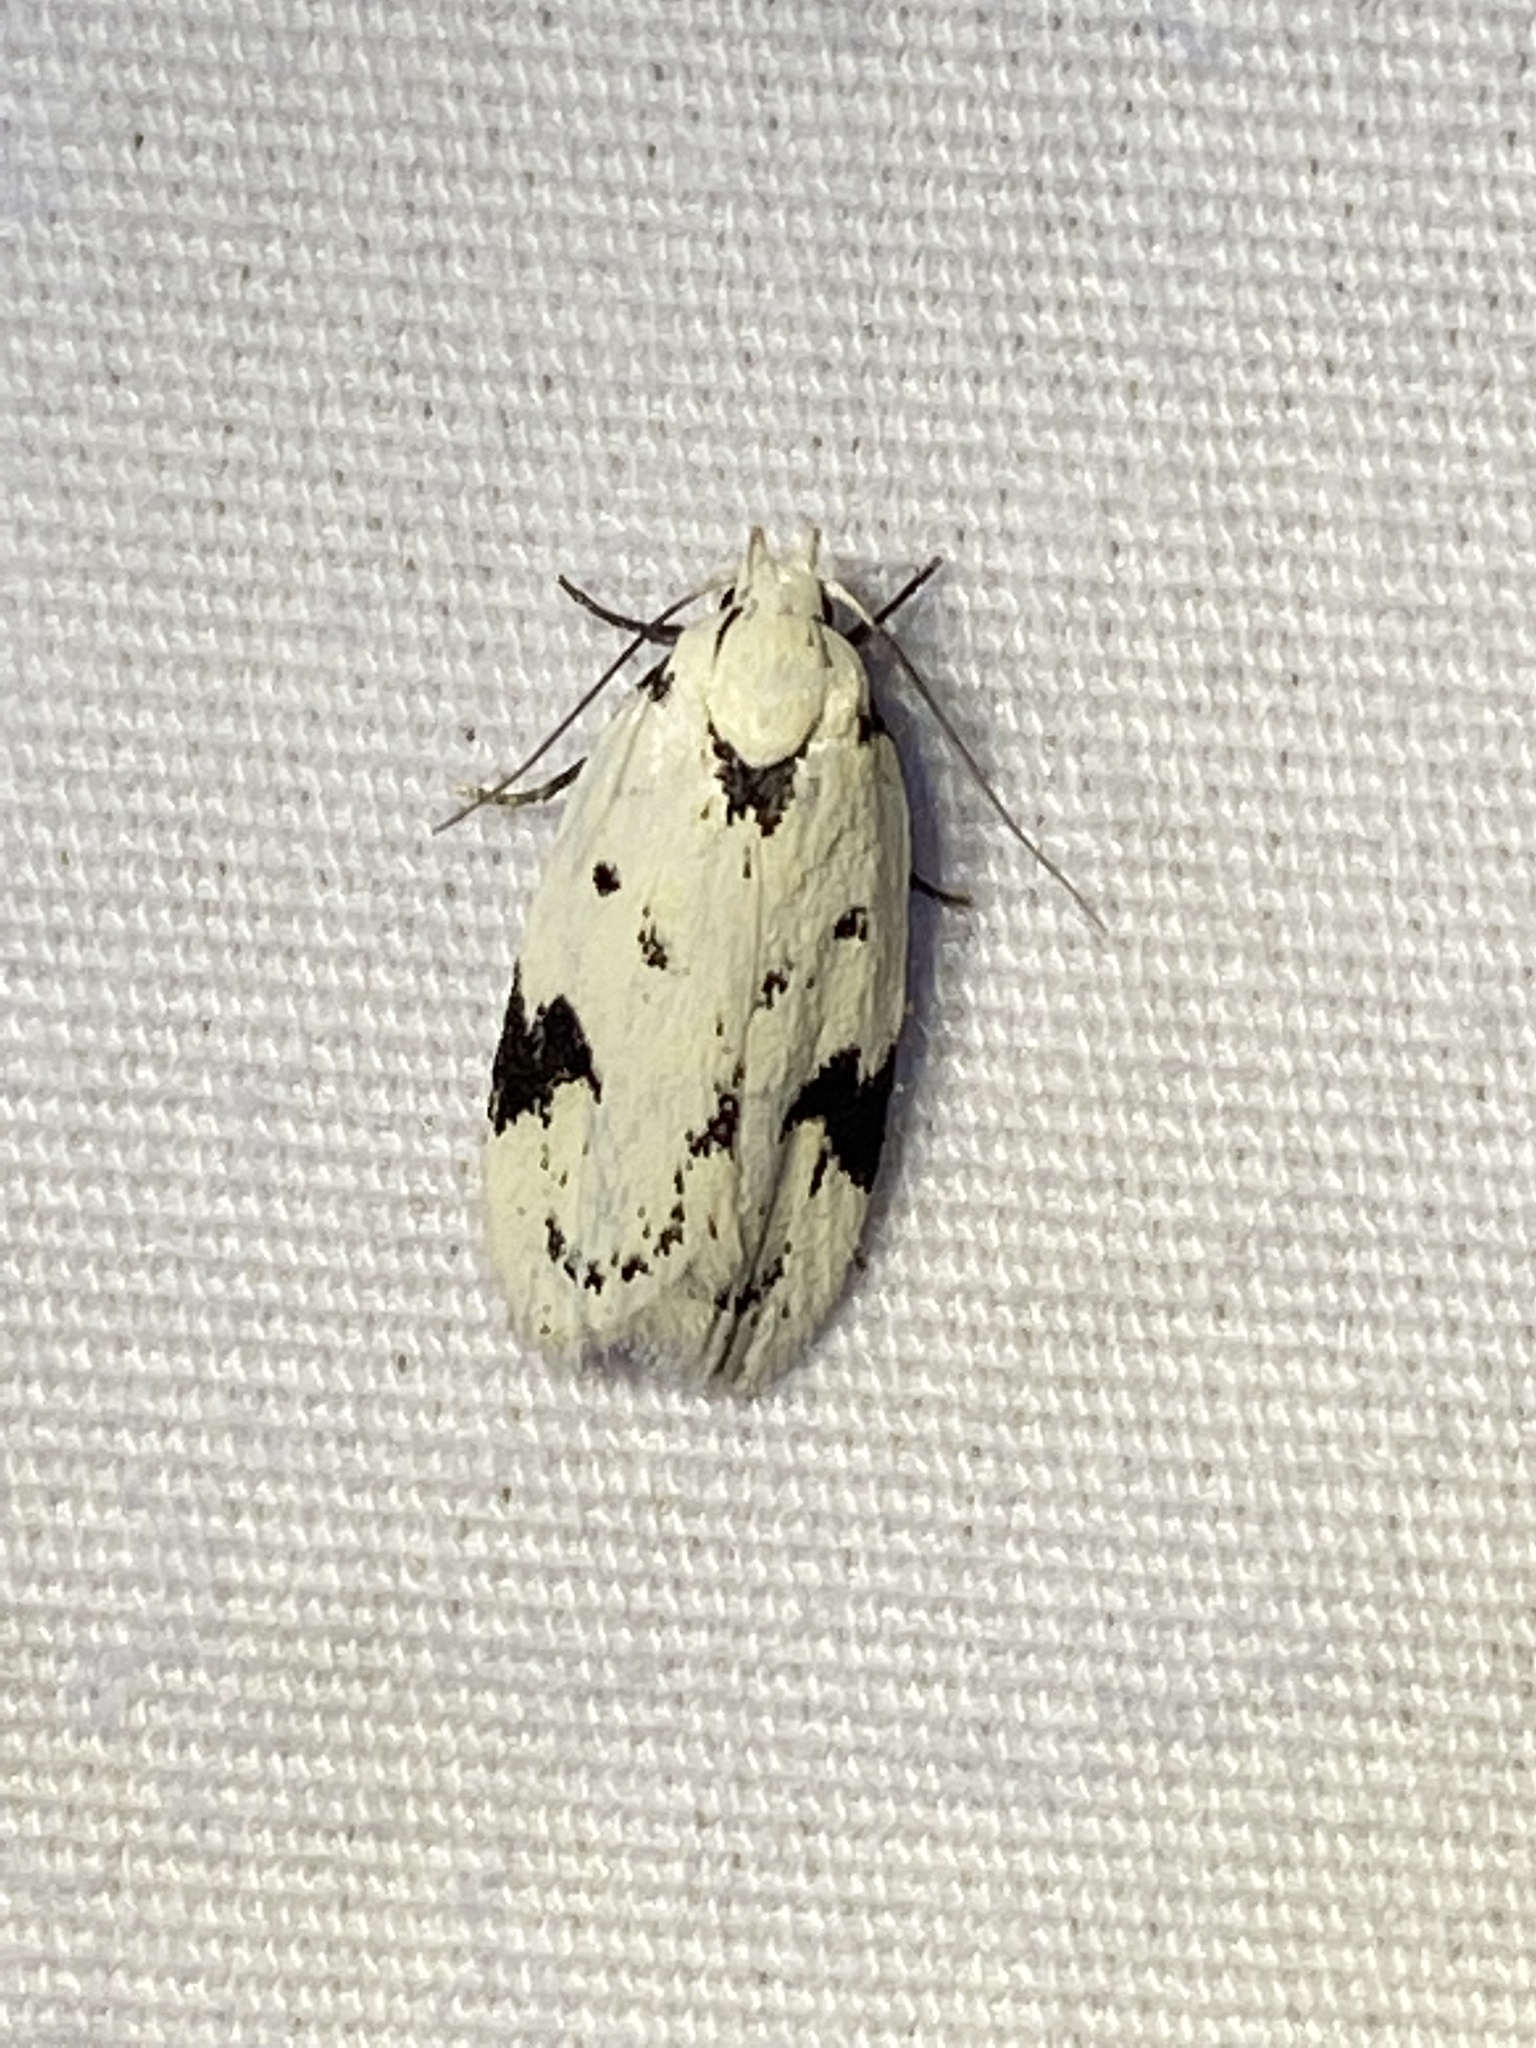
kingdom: Animalia
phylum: Arthropoda
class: Insecta
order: Lepidoptera
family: Oecophoridae
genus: Inga
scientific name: Inga sparsiciliella
